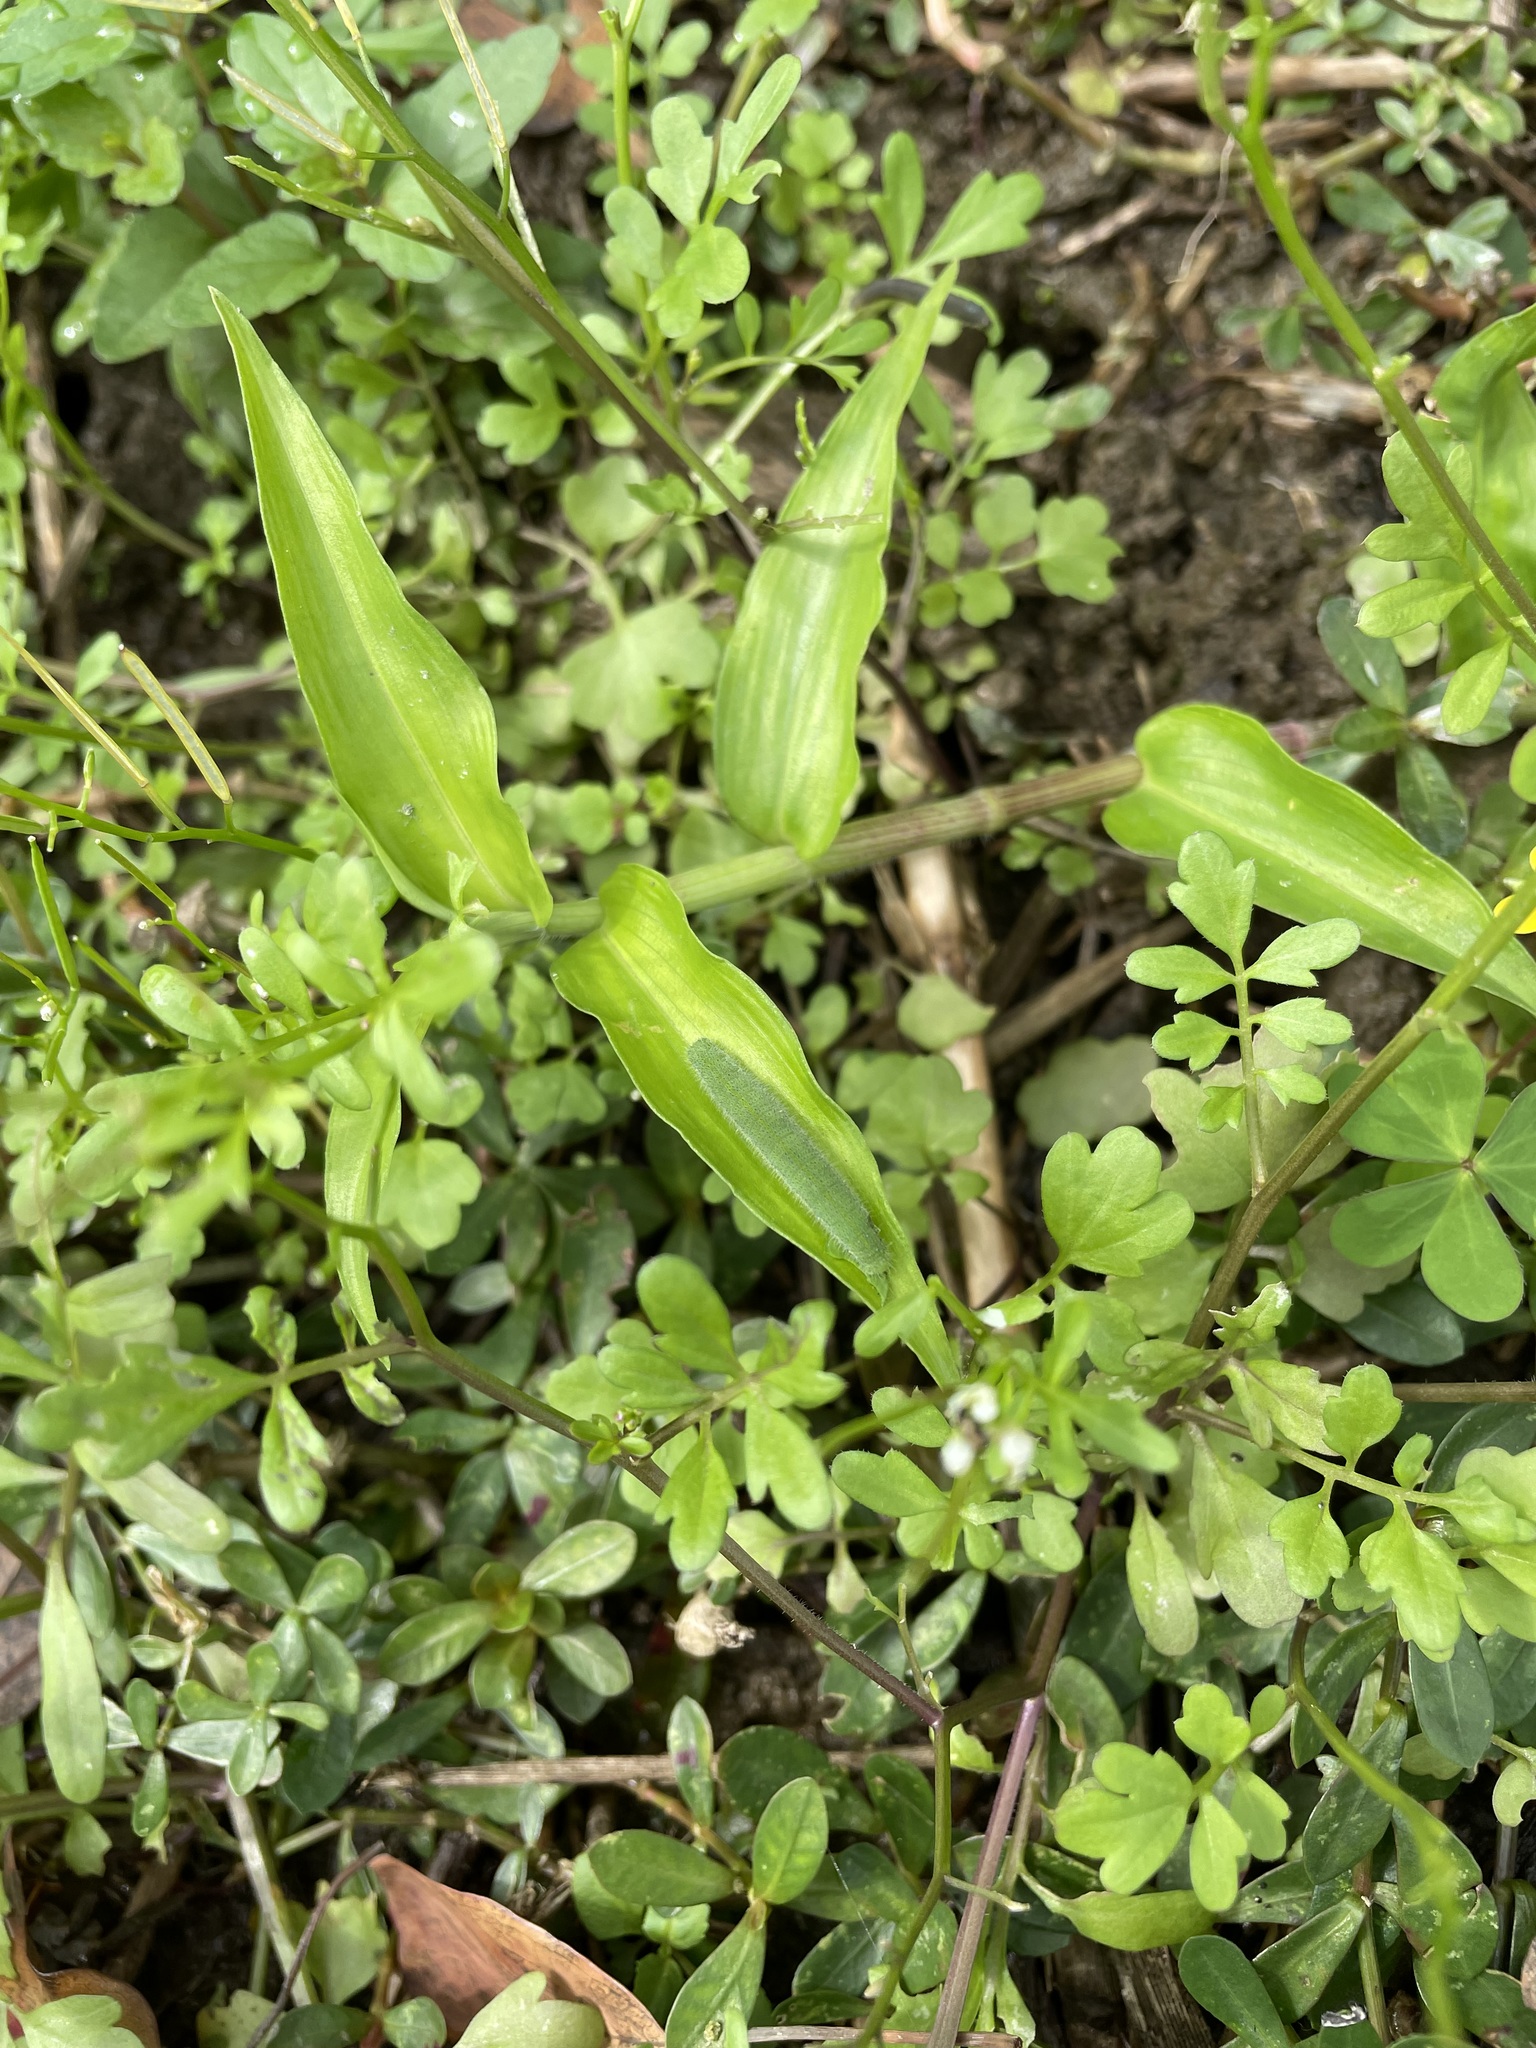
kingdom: Plantae
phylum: Tracheophyta
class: Magnoliopsida
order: Brassicales
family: Brassicaceae
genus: Cardamine
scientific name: Cardamine flexuosa
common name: Woodland bittercress
